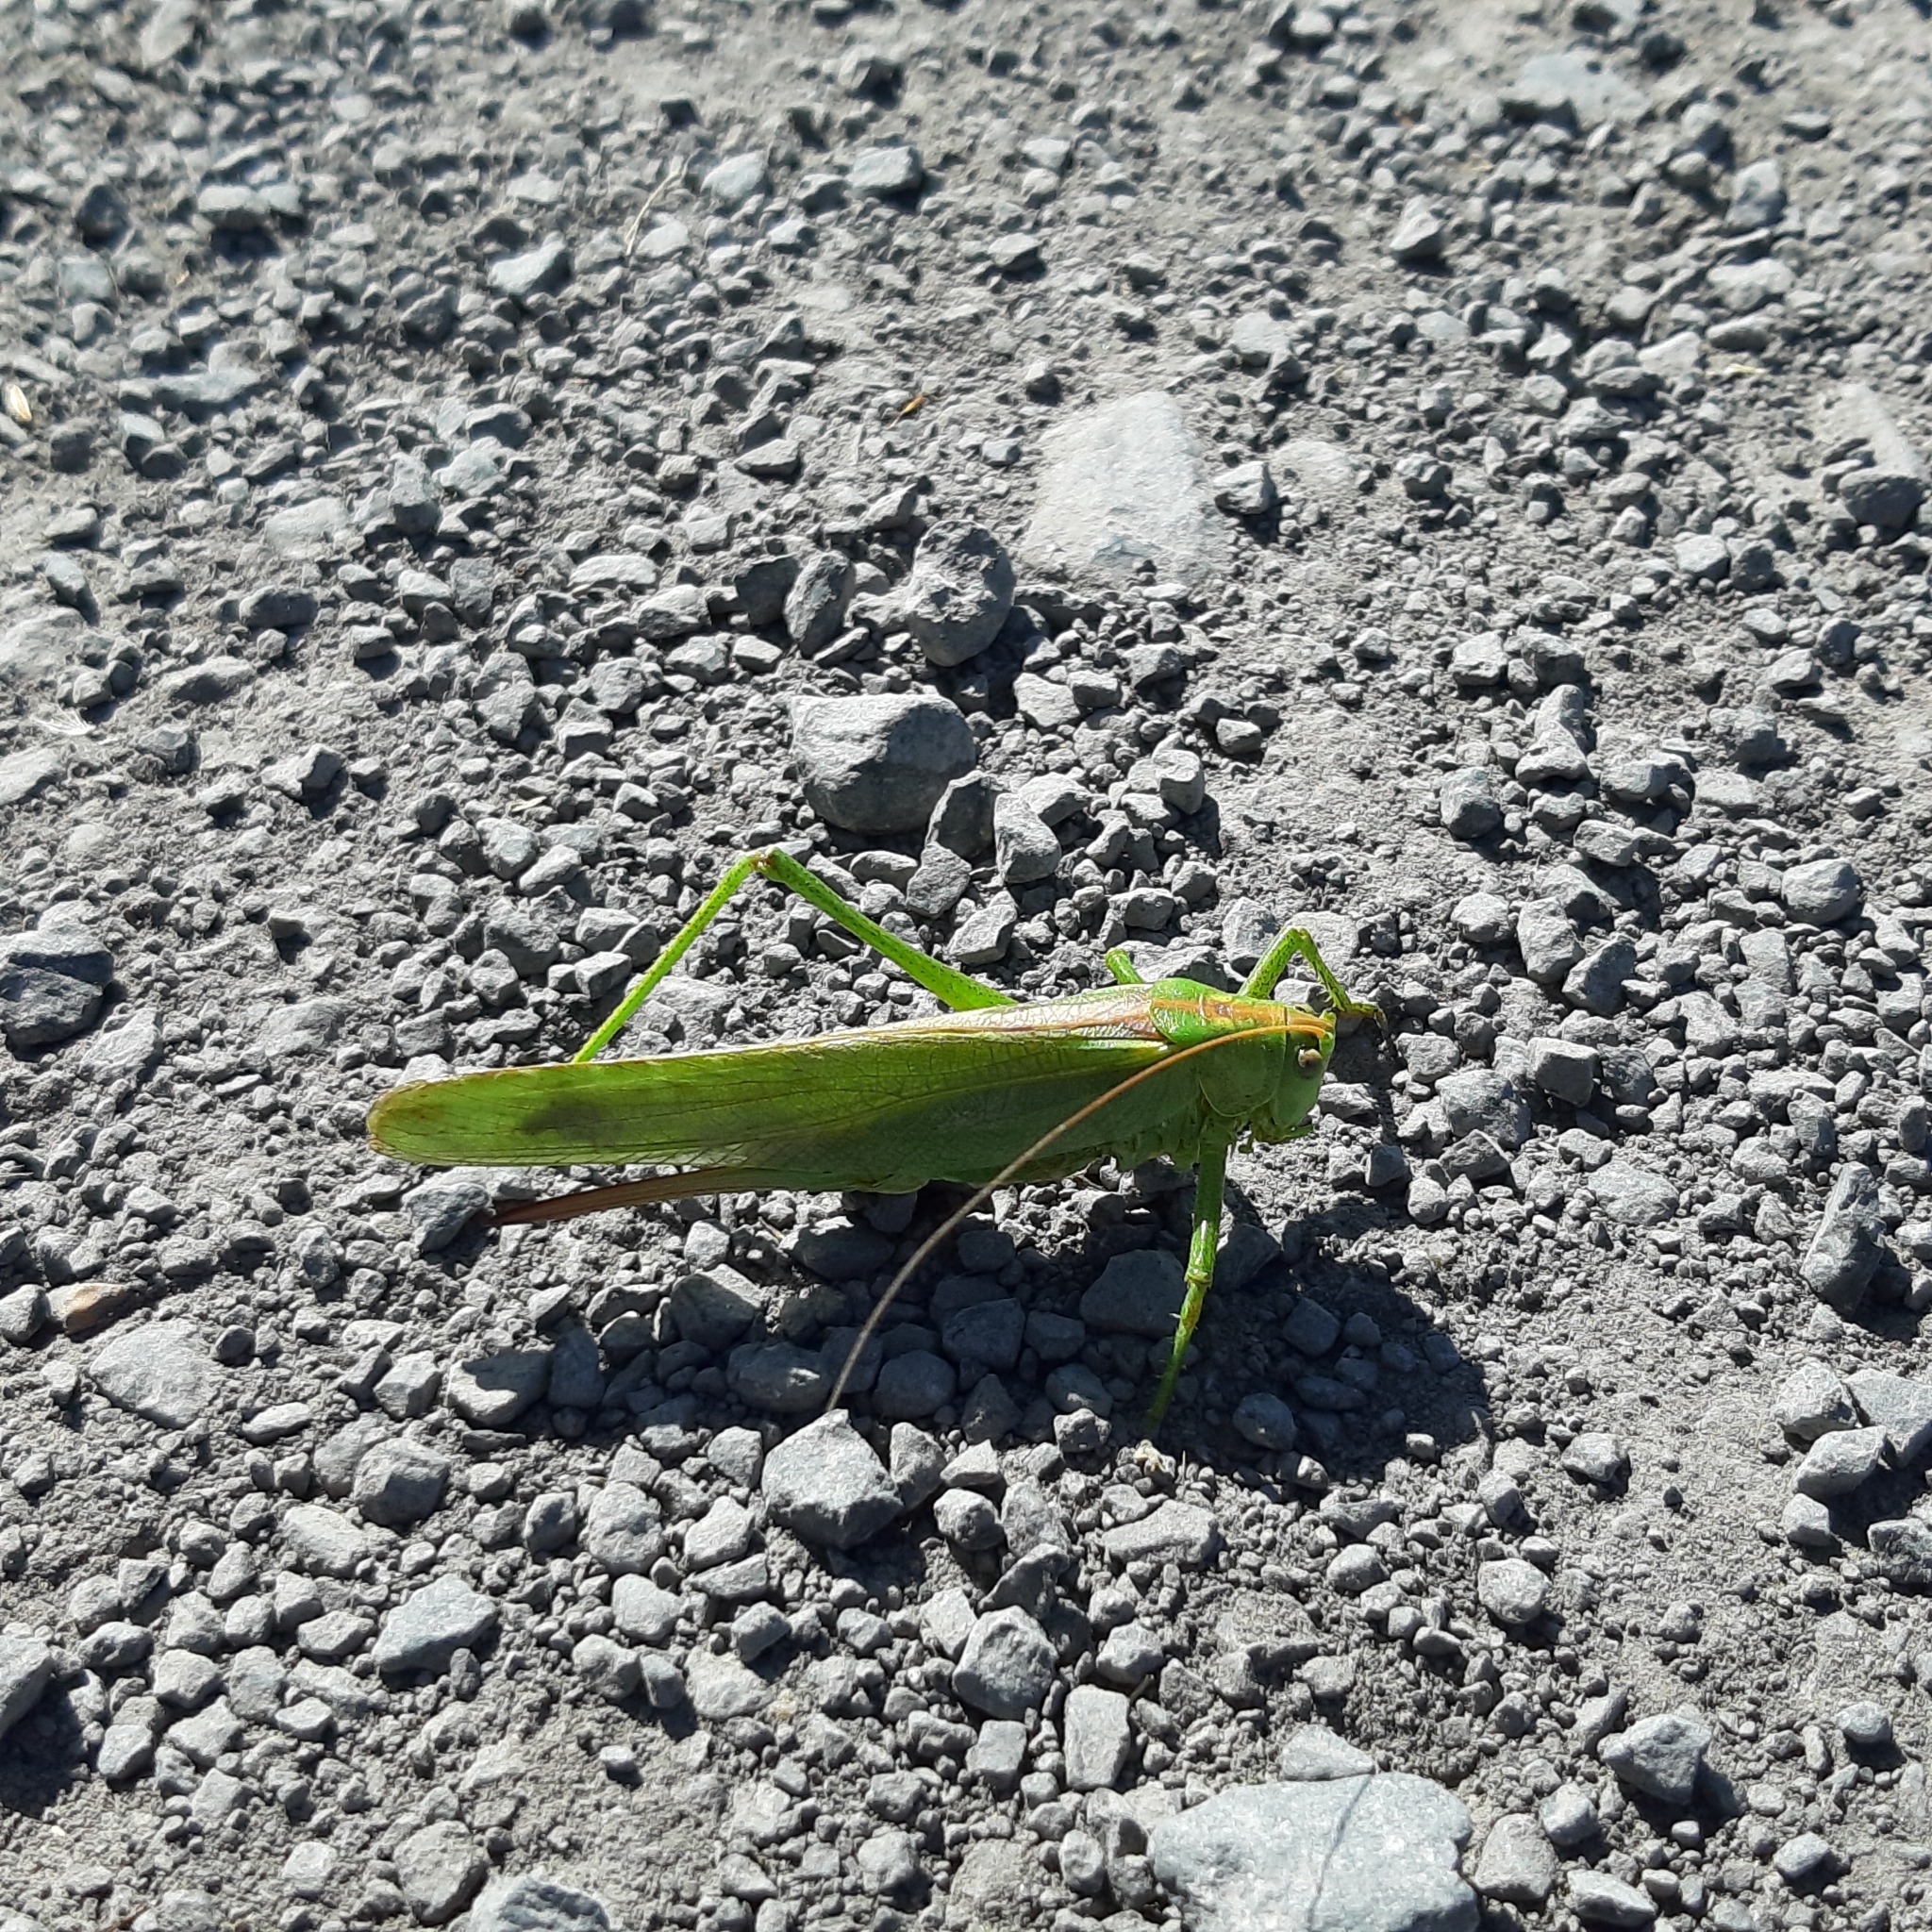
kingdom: Animalia
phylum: Arthropoda
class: Insecta
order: Orthoptera
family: Tettigoniidae
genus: Tettigonia
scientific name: Tettigonia viridissima
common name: Great green bush-cricket
